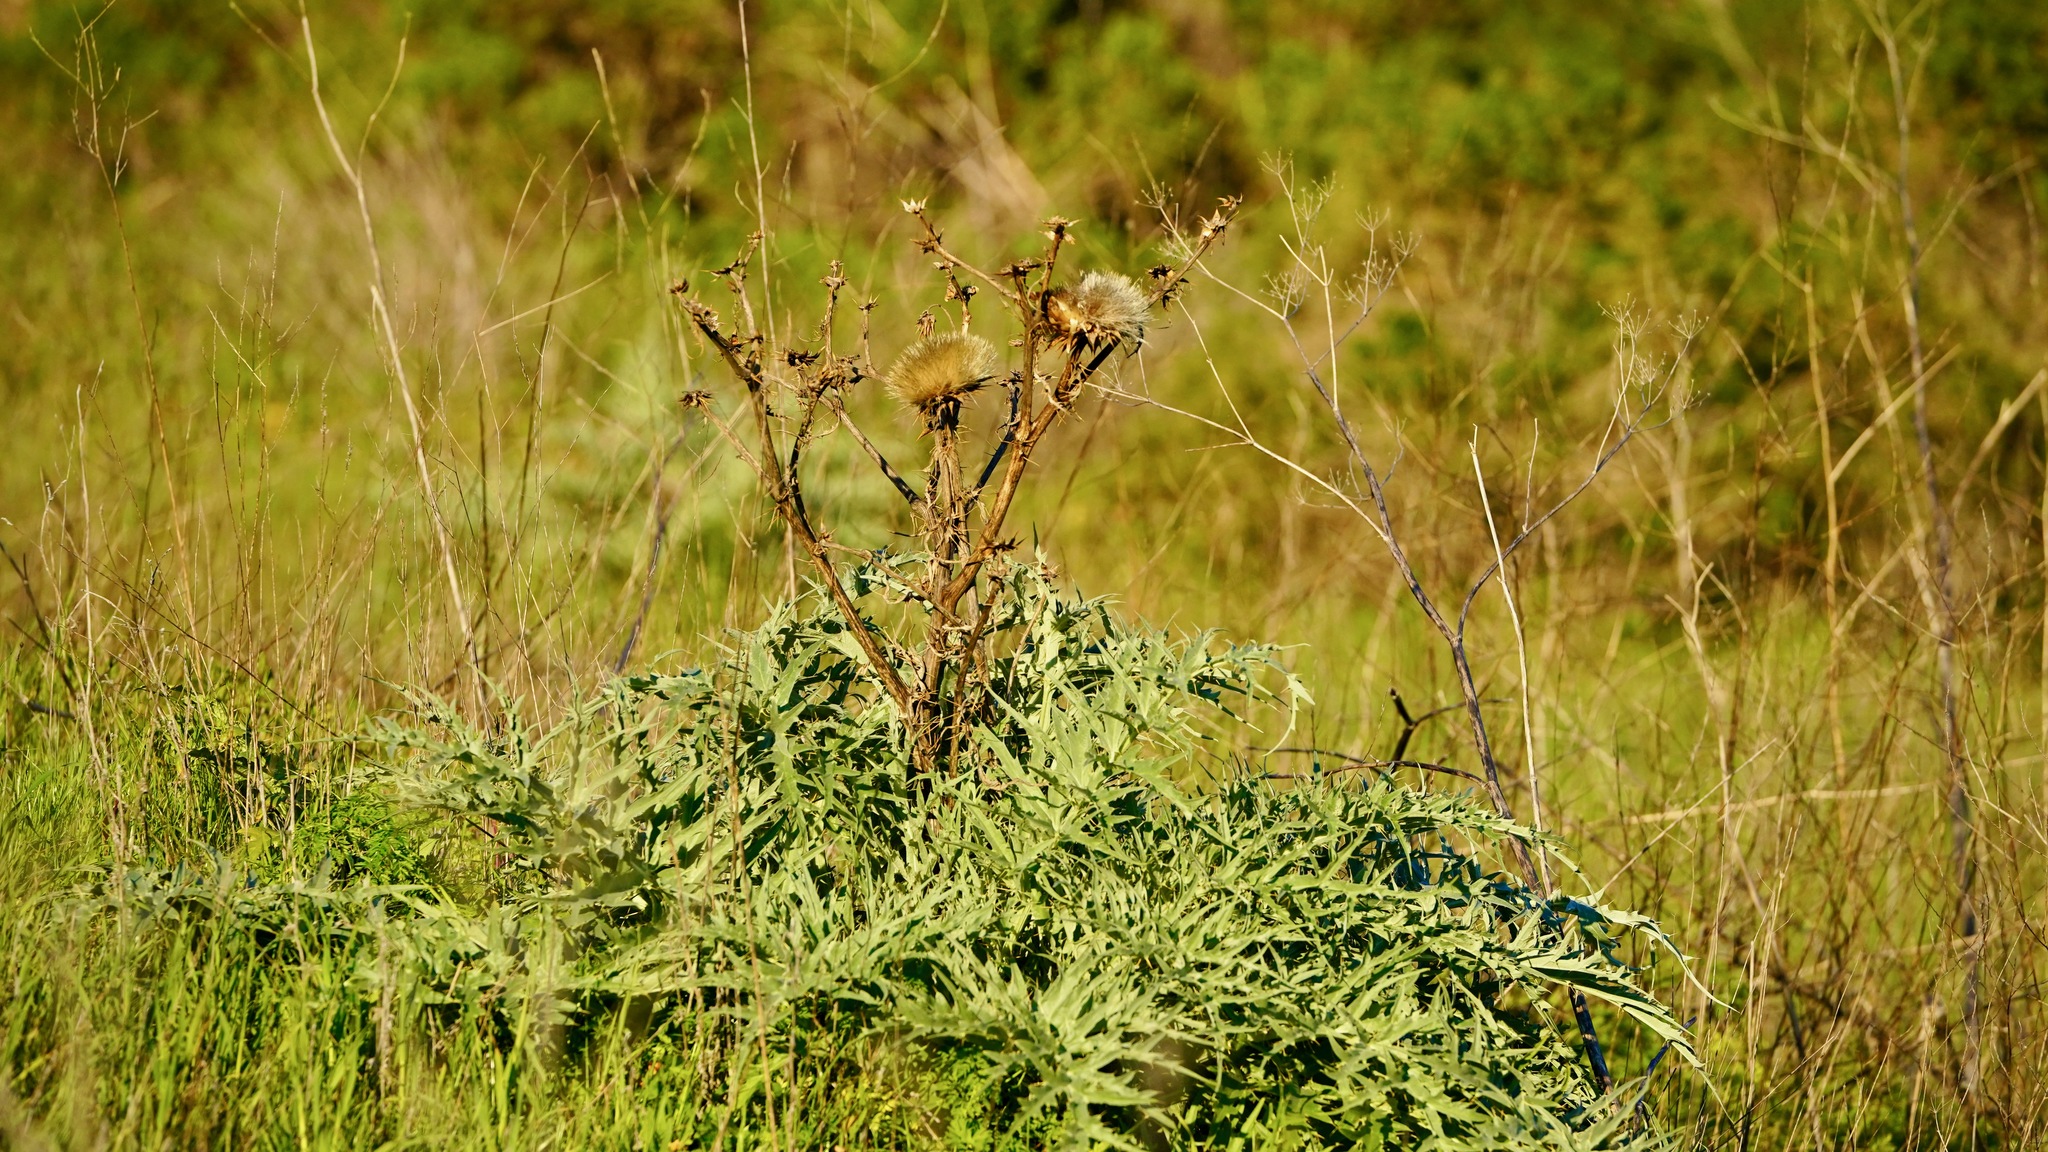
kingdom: Plantae
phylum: Tracheophyta
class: Magnoliopsida
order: Asterales
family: Asteraceae
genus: Cynara
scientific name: Cynara cardunculus
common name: Globe artichoke
